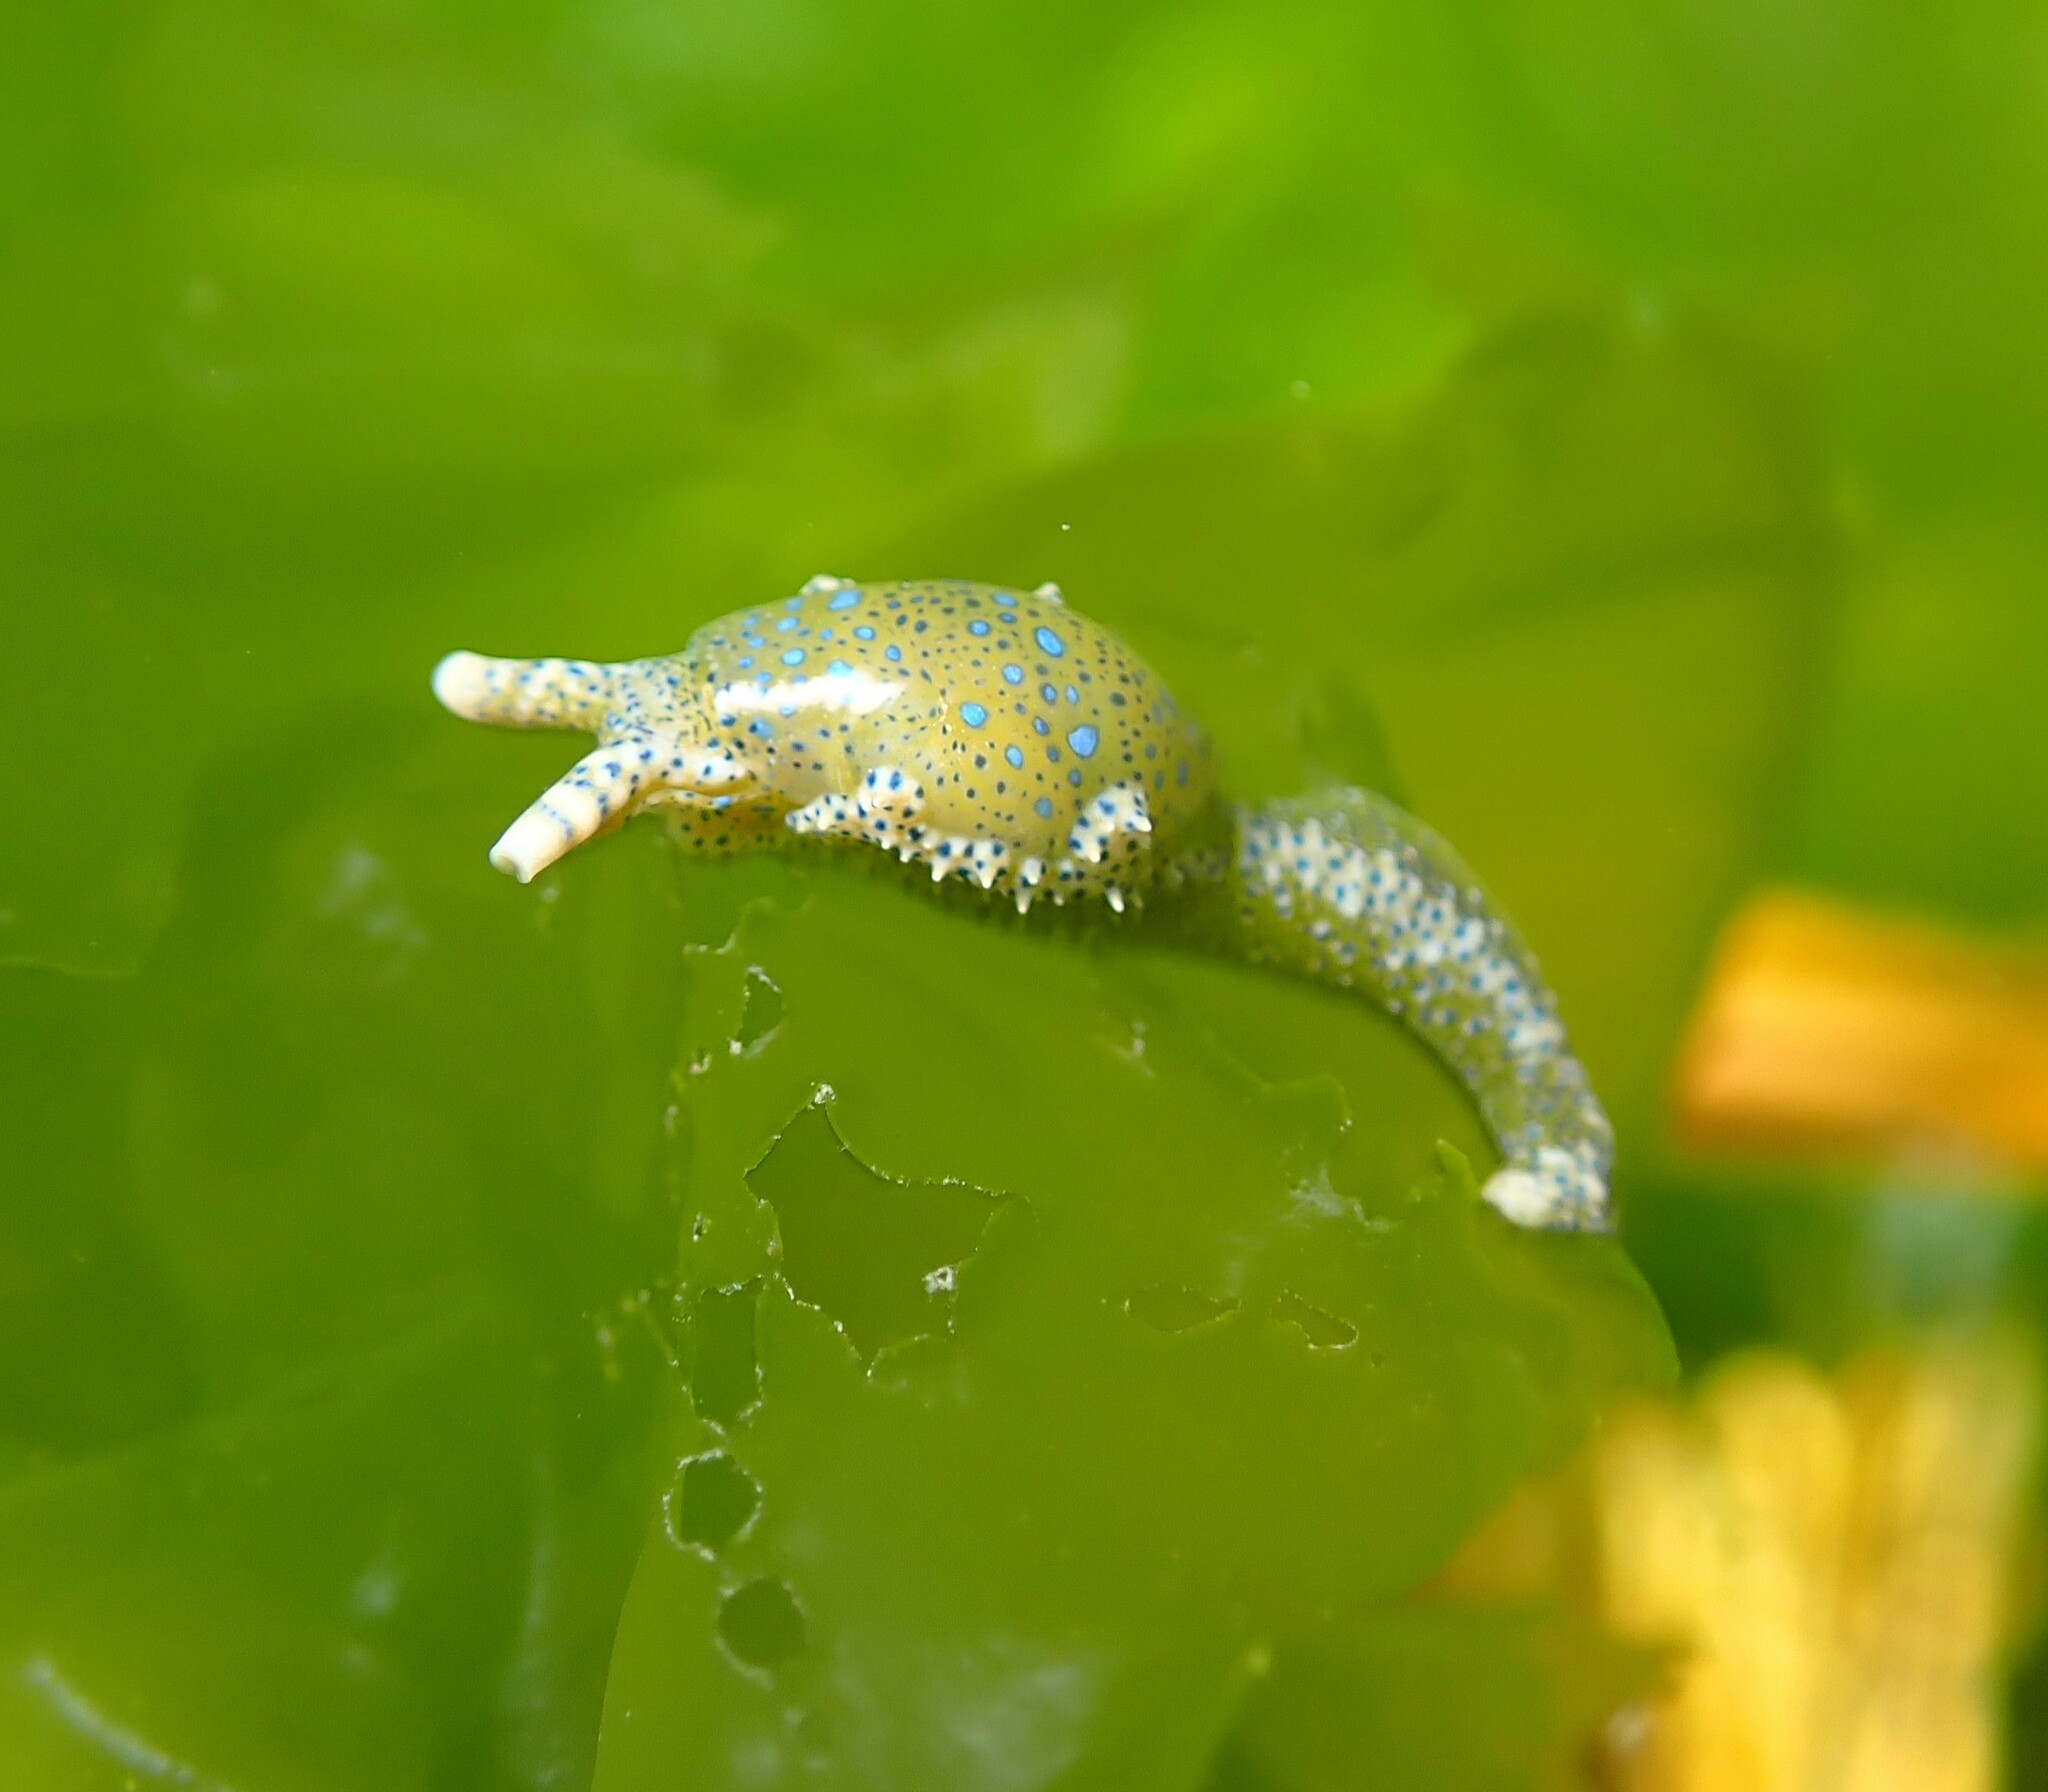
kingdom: Animalia
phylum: Mollusca
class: Gastropoda
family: Oxynoidae
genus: Oxynoe
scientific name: Oxynoe viridis
